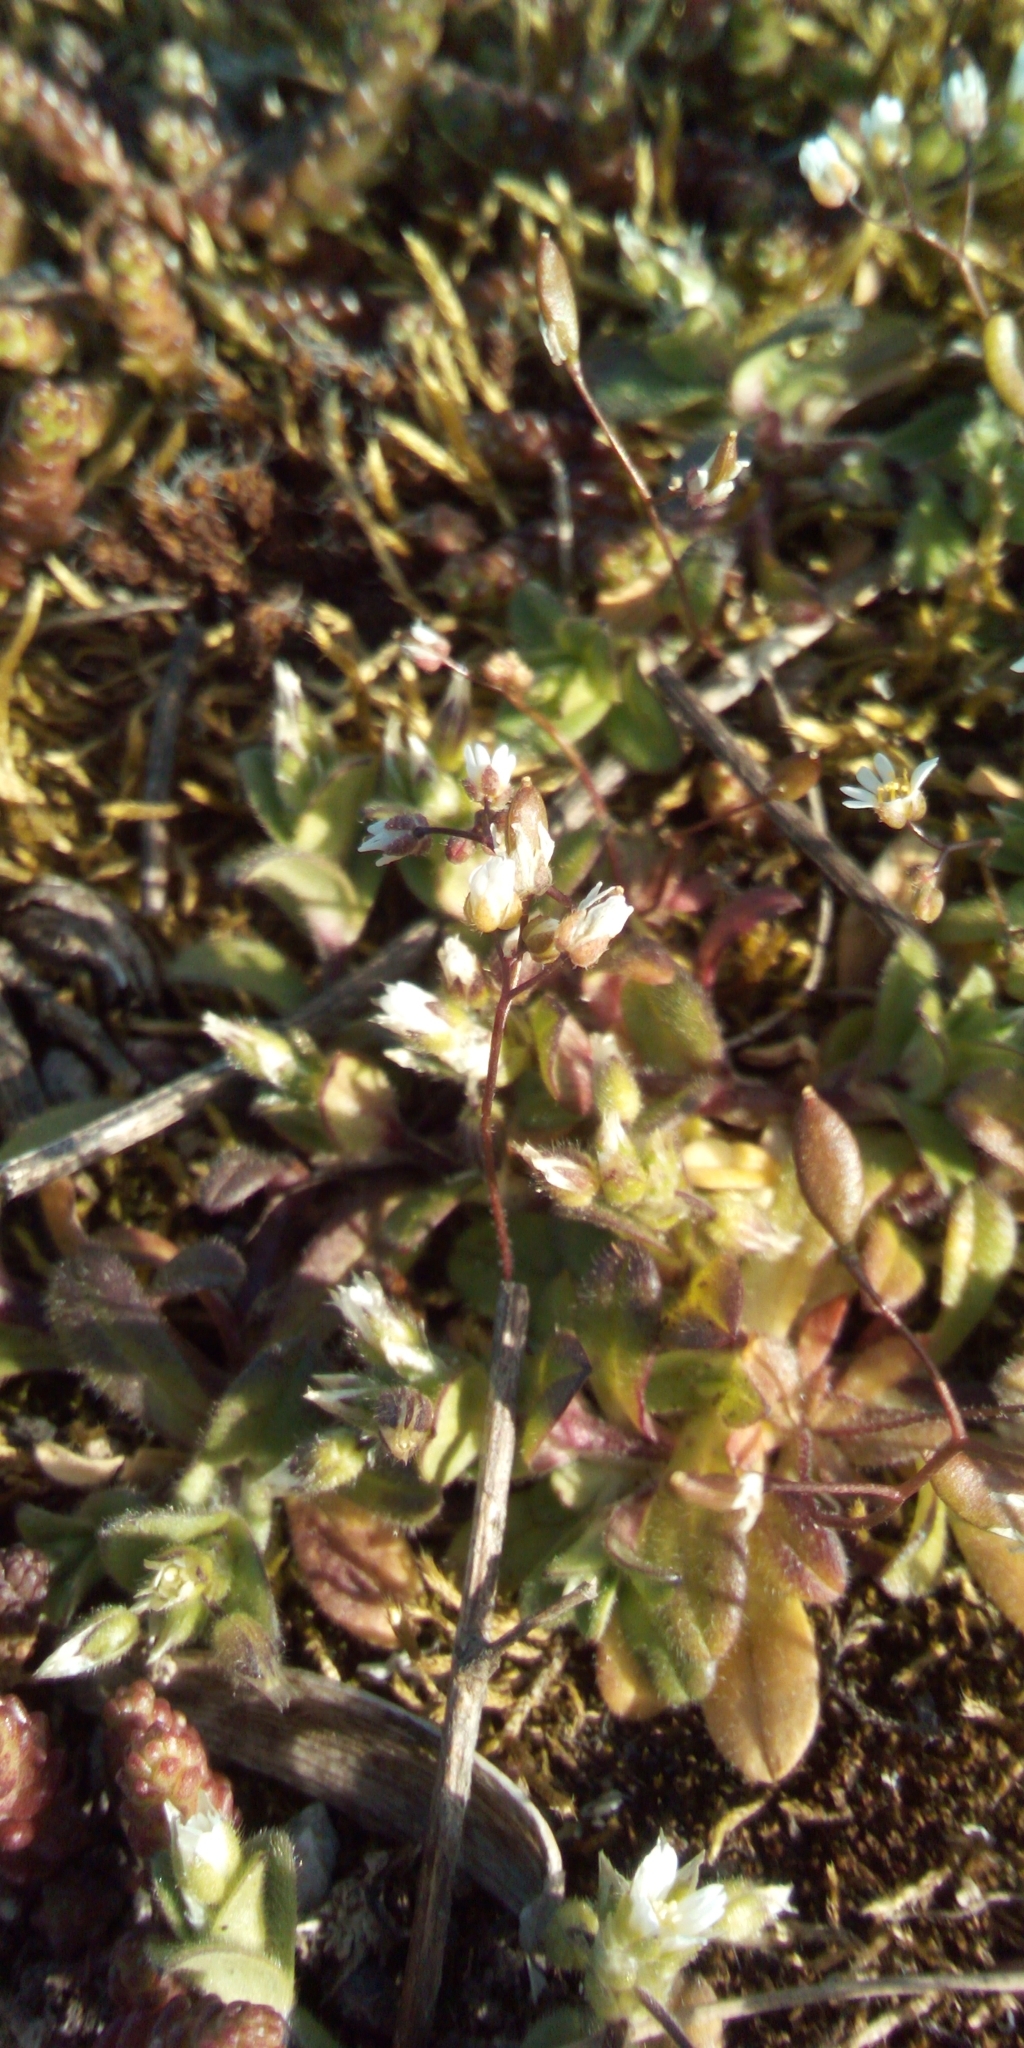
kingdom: Plantae
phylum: Tracheophyta
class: Magnoliopsida
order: Brassicales
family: Brassicaceae
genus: Draba
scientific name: Draba verna
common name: Spring draba
